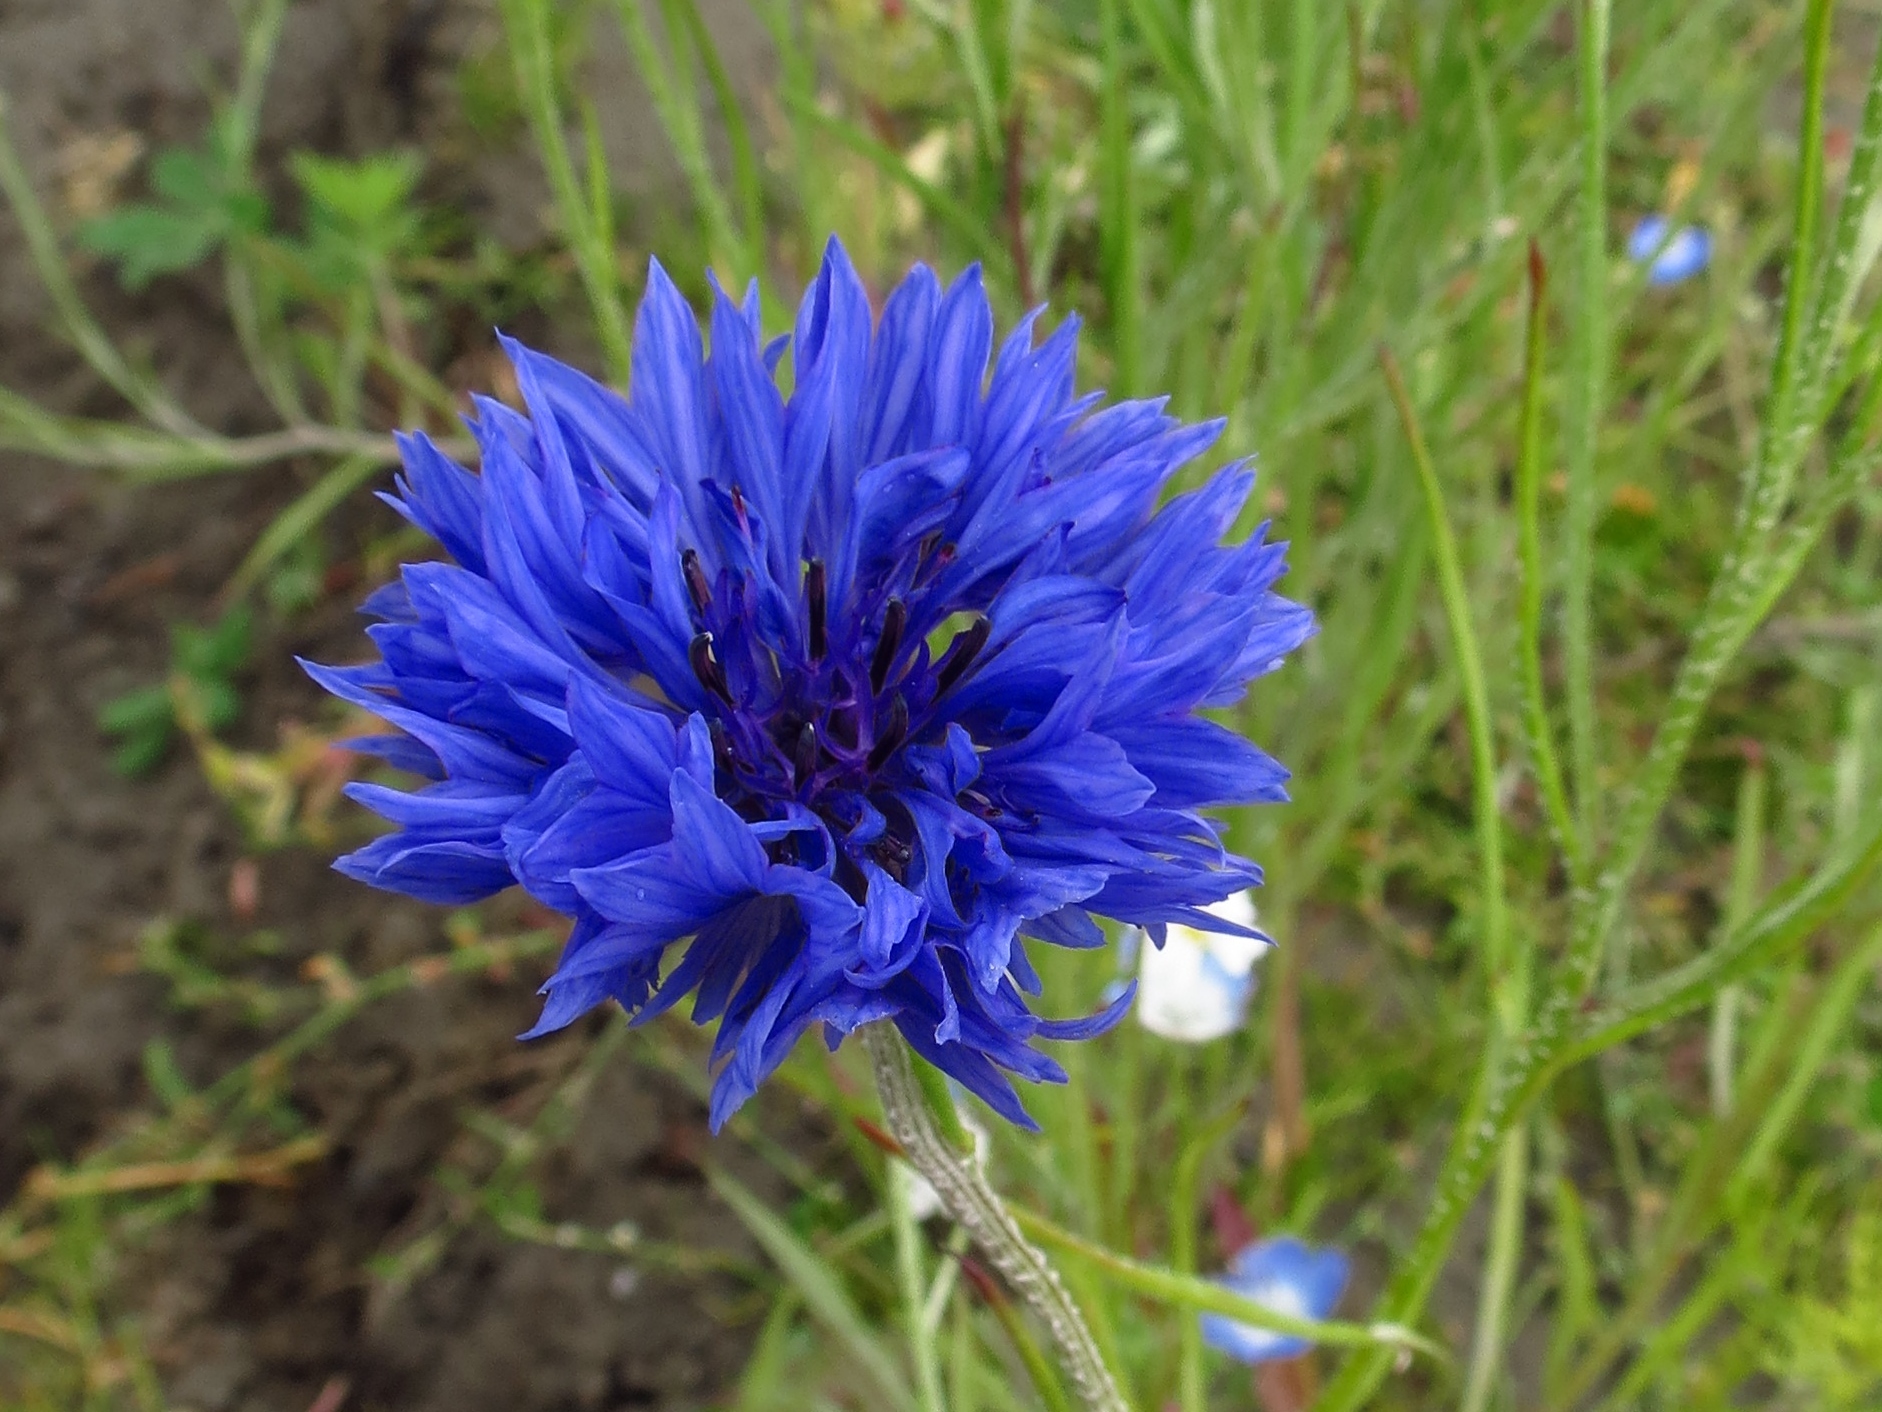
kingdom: Plantae
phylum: Tracheophyta
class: Magnoliopsida
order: Asterales
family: Asteraceae
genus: Centaurea
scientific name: Centaurea cyanus
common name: Cornflower
